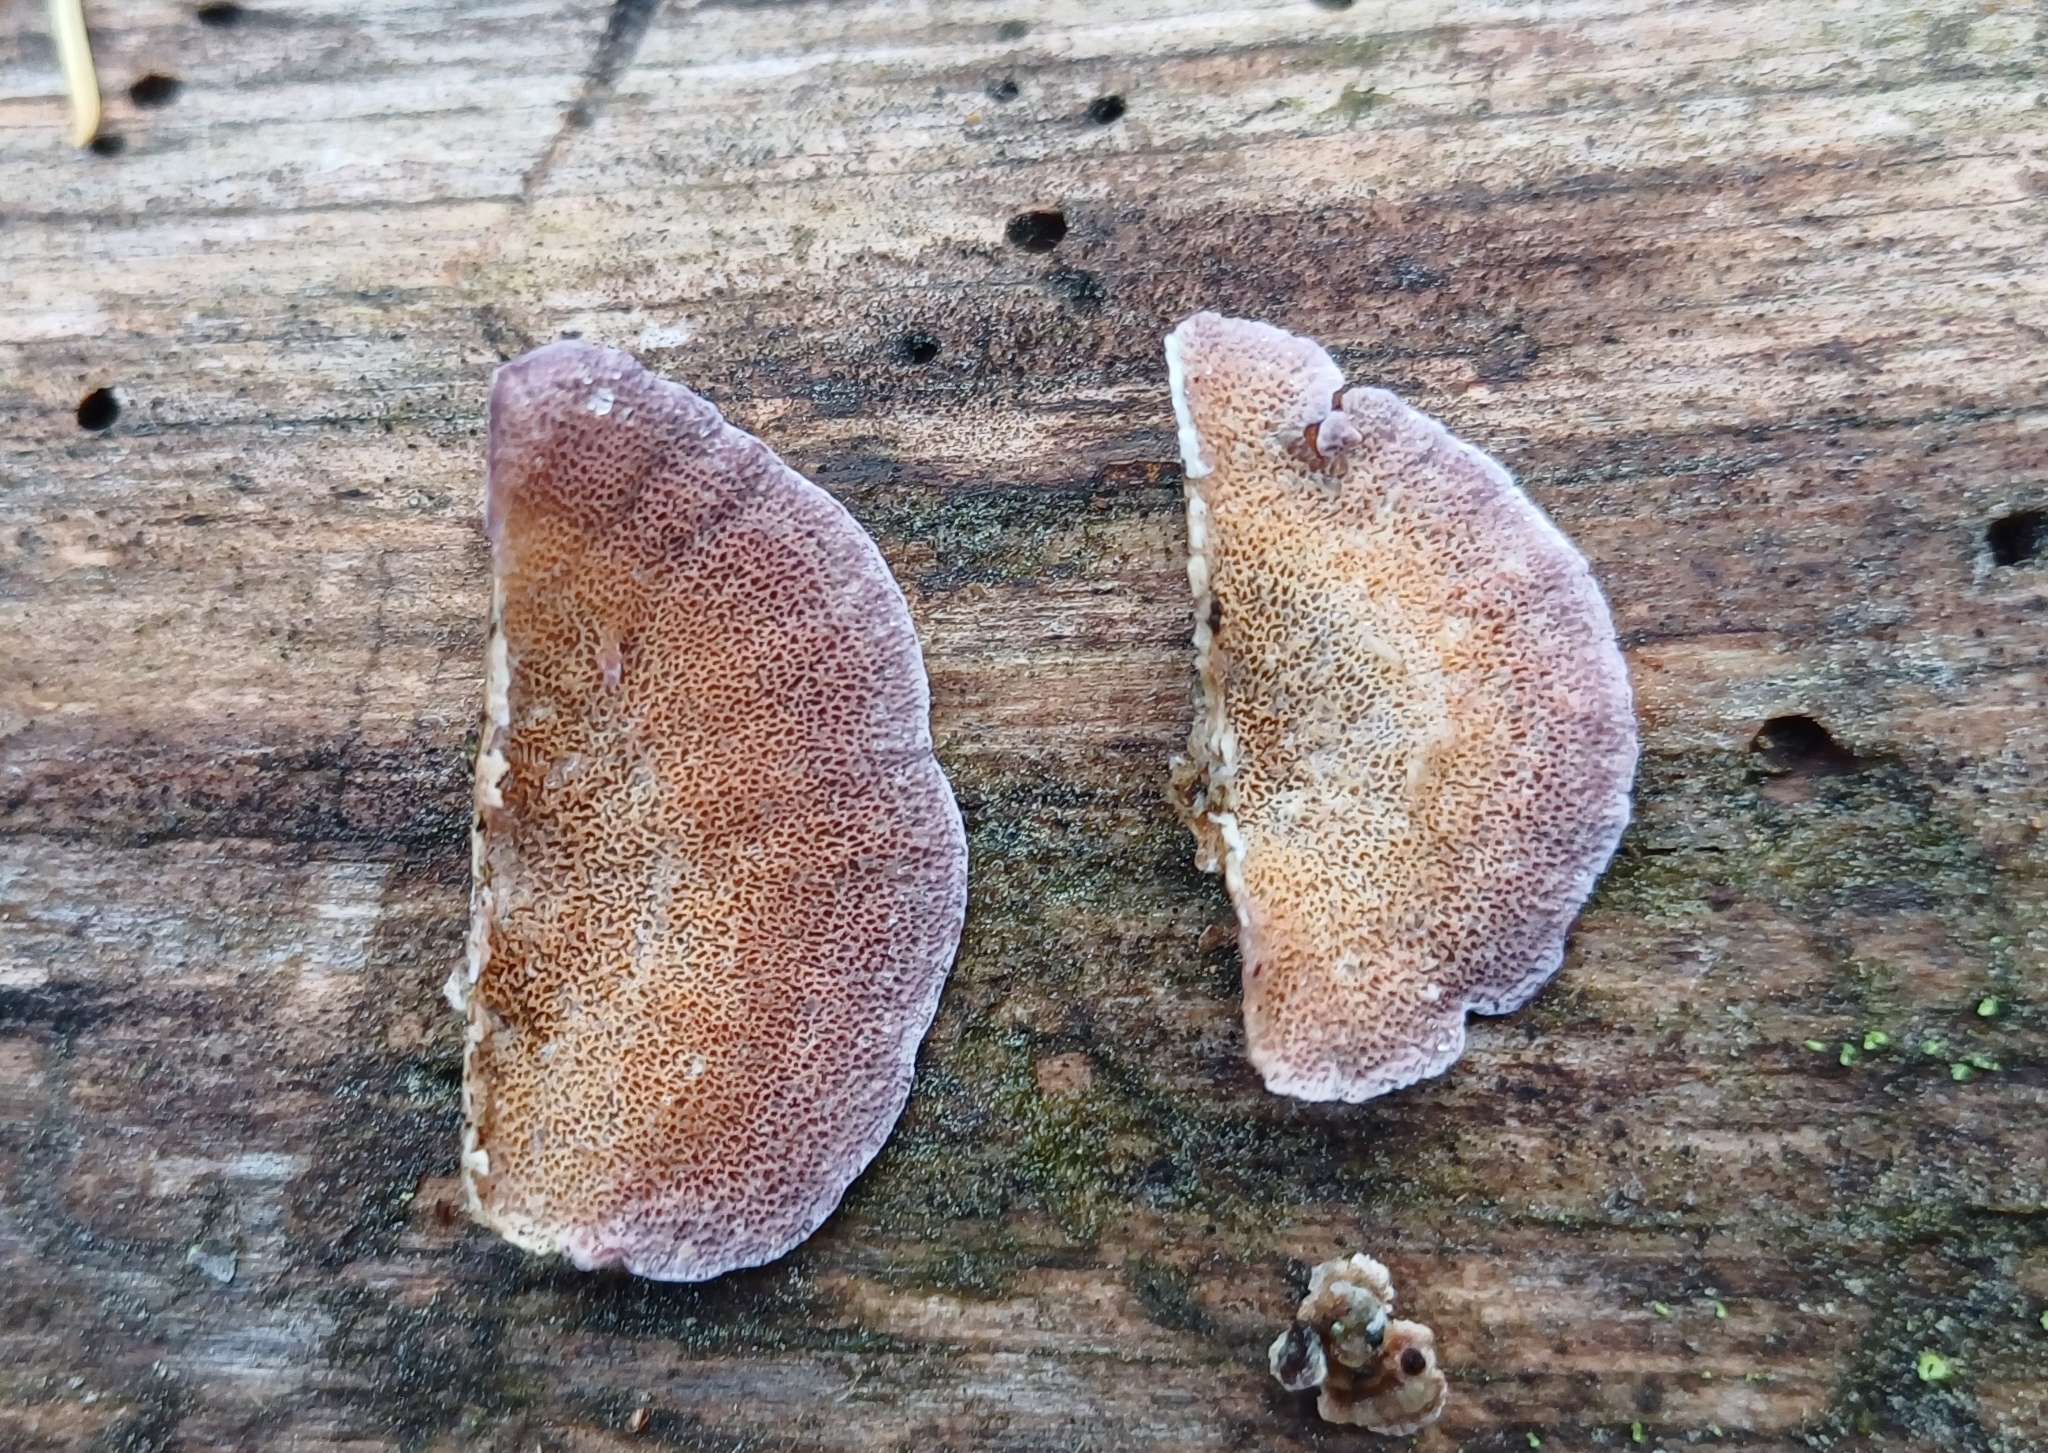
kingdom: Fungi
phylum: Basidiomycota
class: Agaricomycetes
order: Hymenochaetales
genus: Trichaptum
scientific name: Trichaptum abietinum
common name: Purplepore bracket
